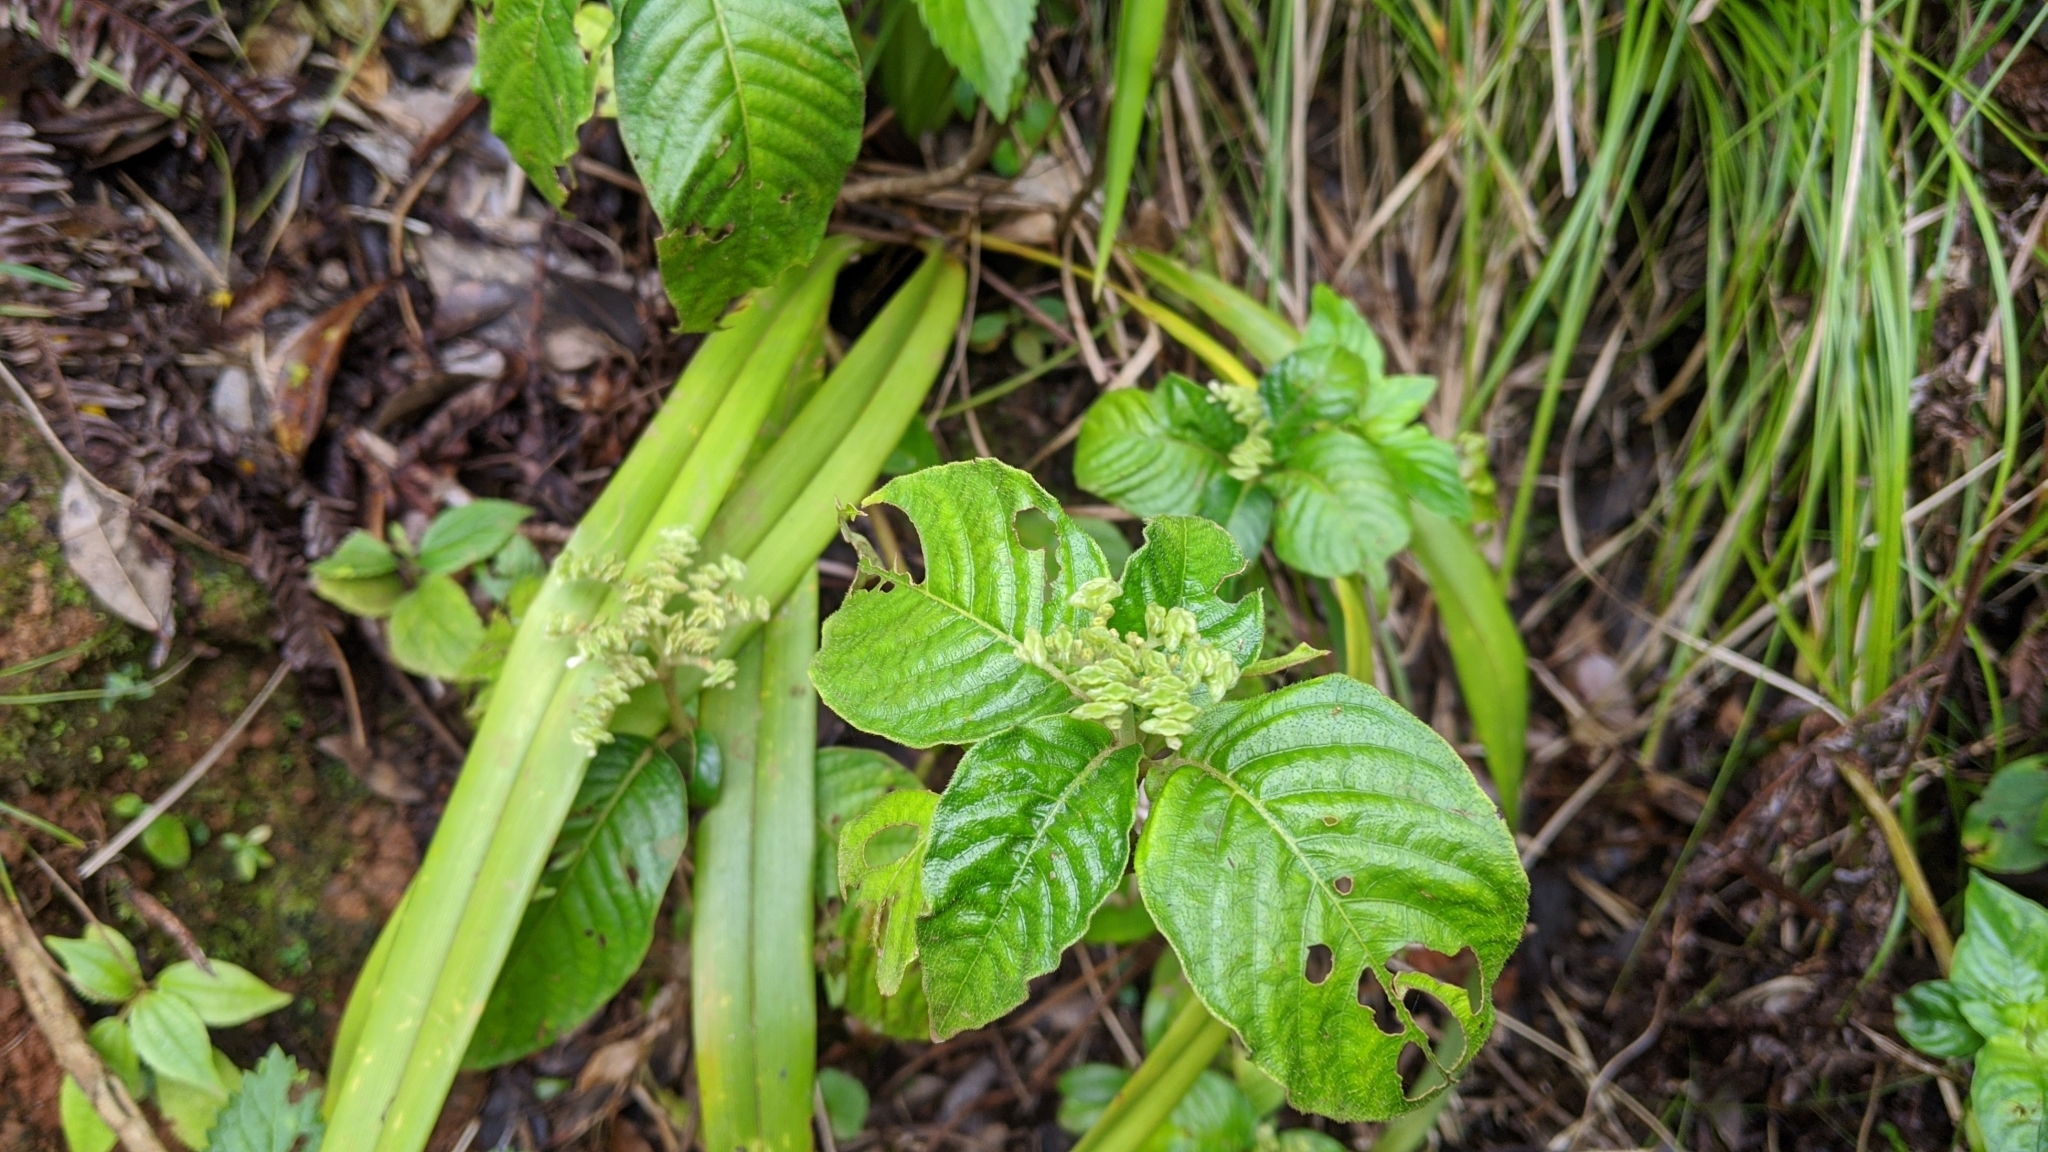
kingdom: Plantae
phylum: Tracheophyta
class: Magnoliopsida
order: Gentianales
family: Rubiaceae
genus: Ophiorrhiza
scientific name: Ophiorrhiza kuroiwae
